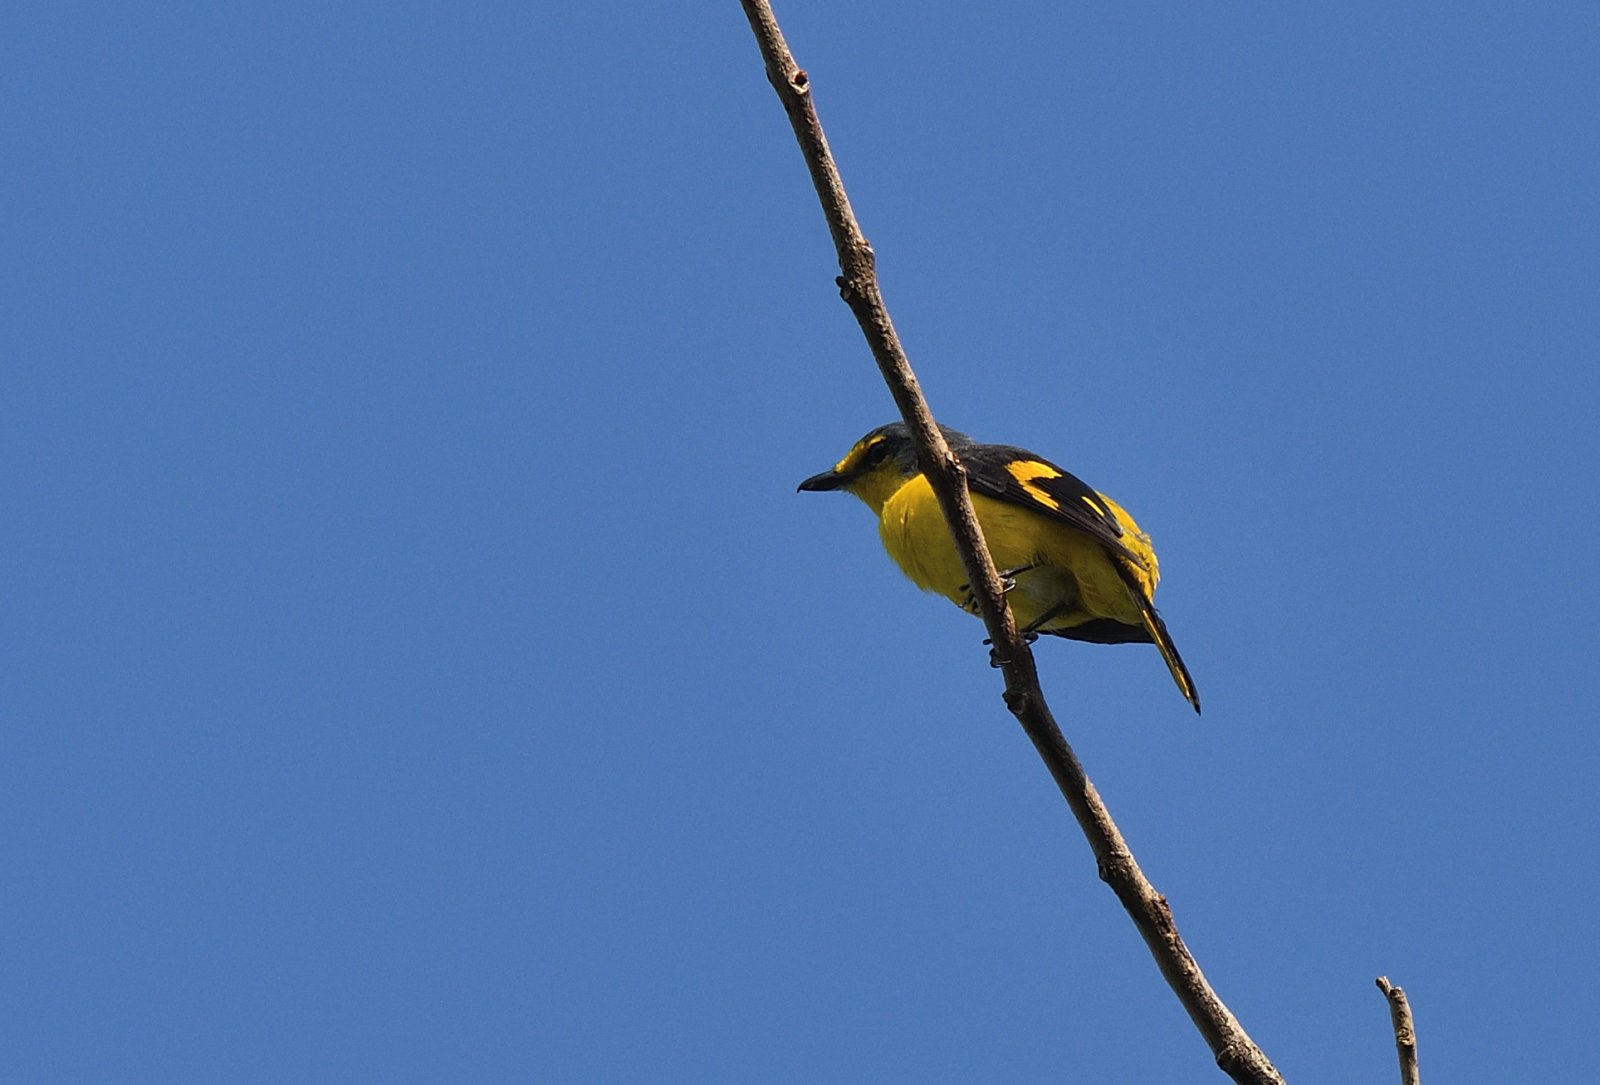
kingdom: Animalia
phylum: Chordata
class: Aves
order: Passeriformes
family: Campephagidae
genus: Pericrocotus
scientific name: Pericrocotus flammeus
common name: Orange minivet
